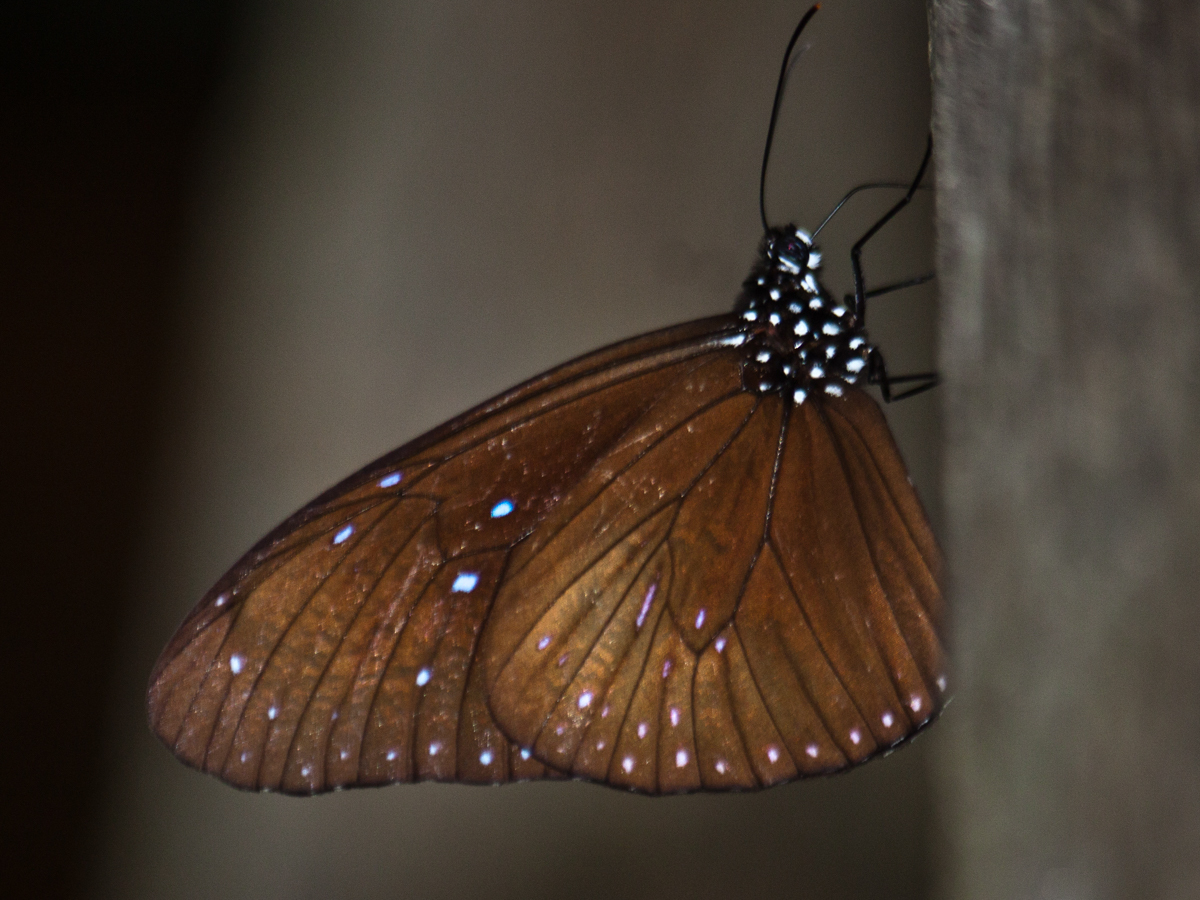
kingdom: Animalia
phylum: Arthropoda
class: Insecta
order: Lepidoptera
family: Nymphalidae
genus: Euploea
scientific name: Euploea mulciber
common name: Striped blue crow butterfly
